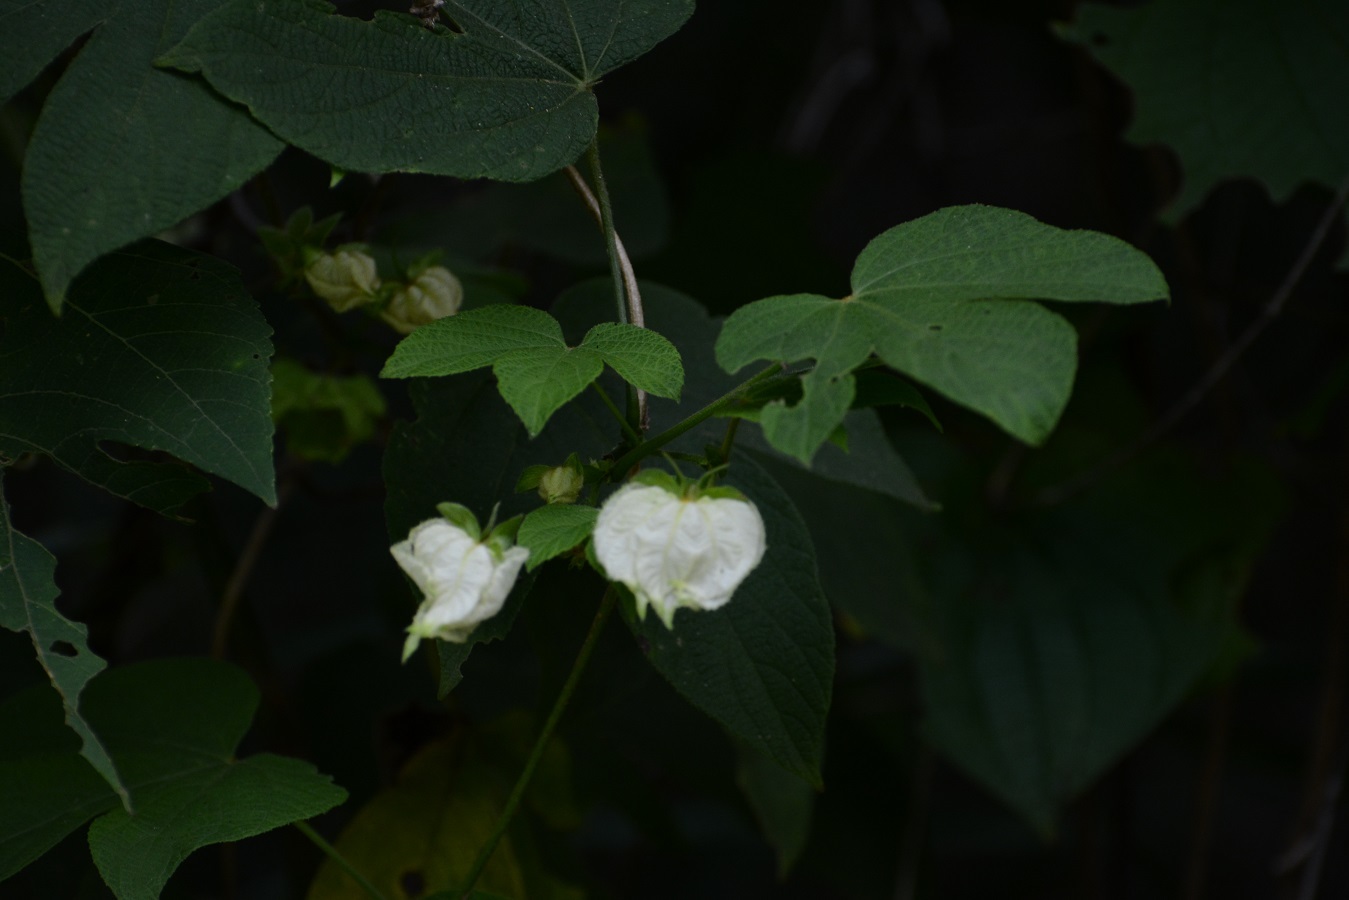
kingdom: Plantae
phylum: Tracheophyta
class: Magnoliopsida
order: Malpighiales
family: Euphorbiaceae
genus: Dalechampia
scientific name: Dalechampia scandens
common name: Spurgecreeper
